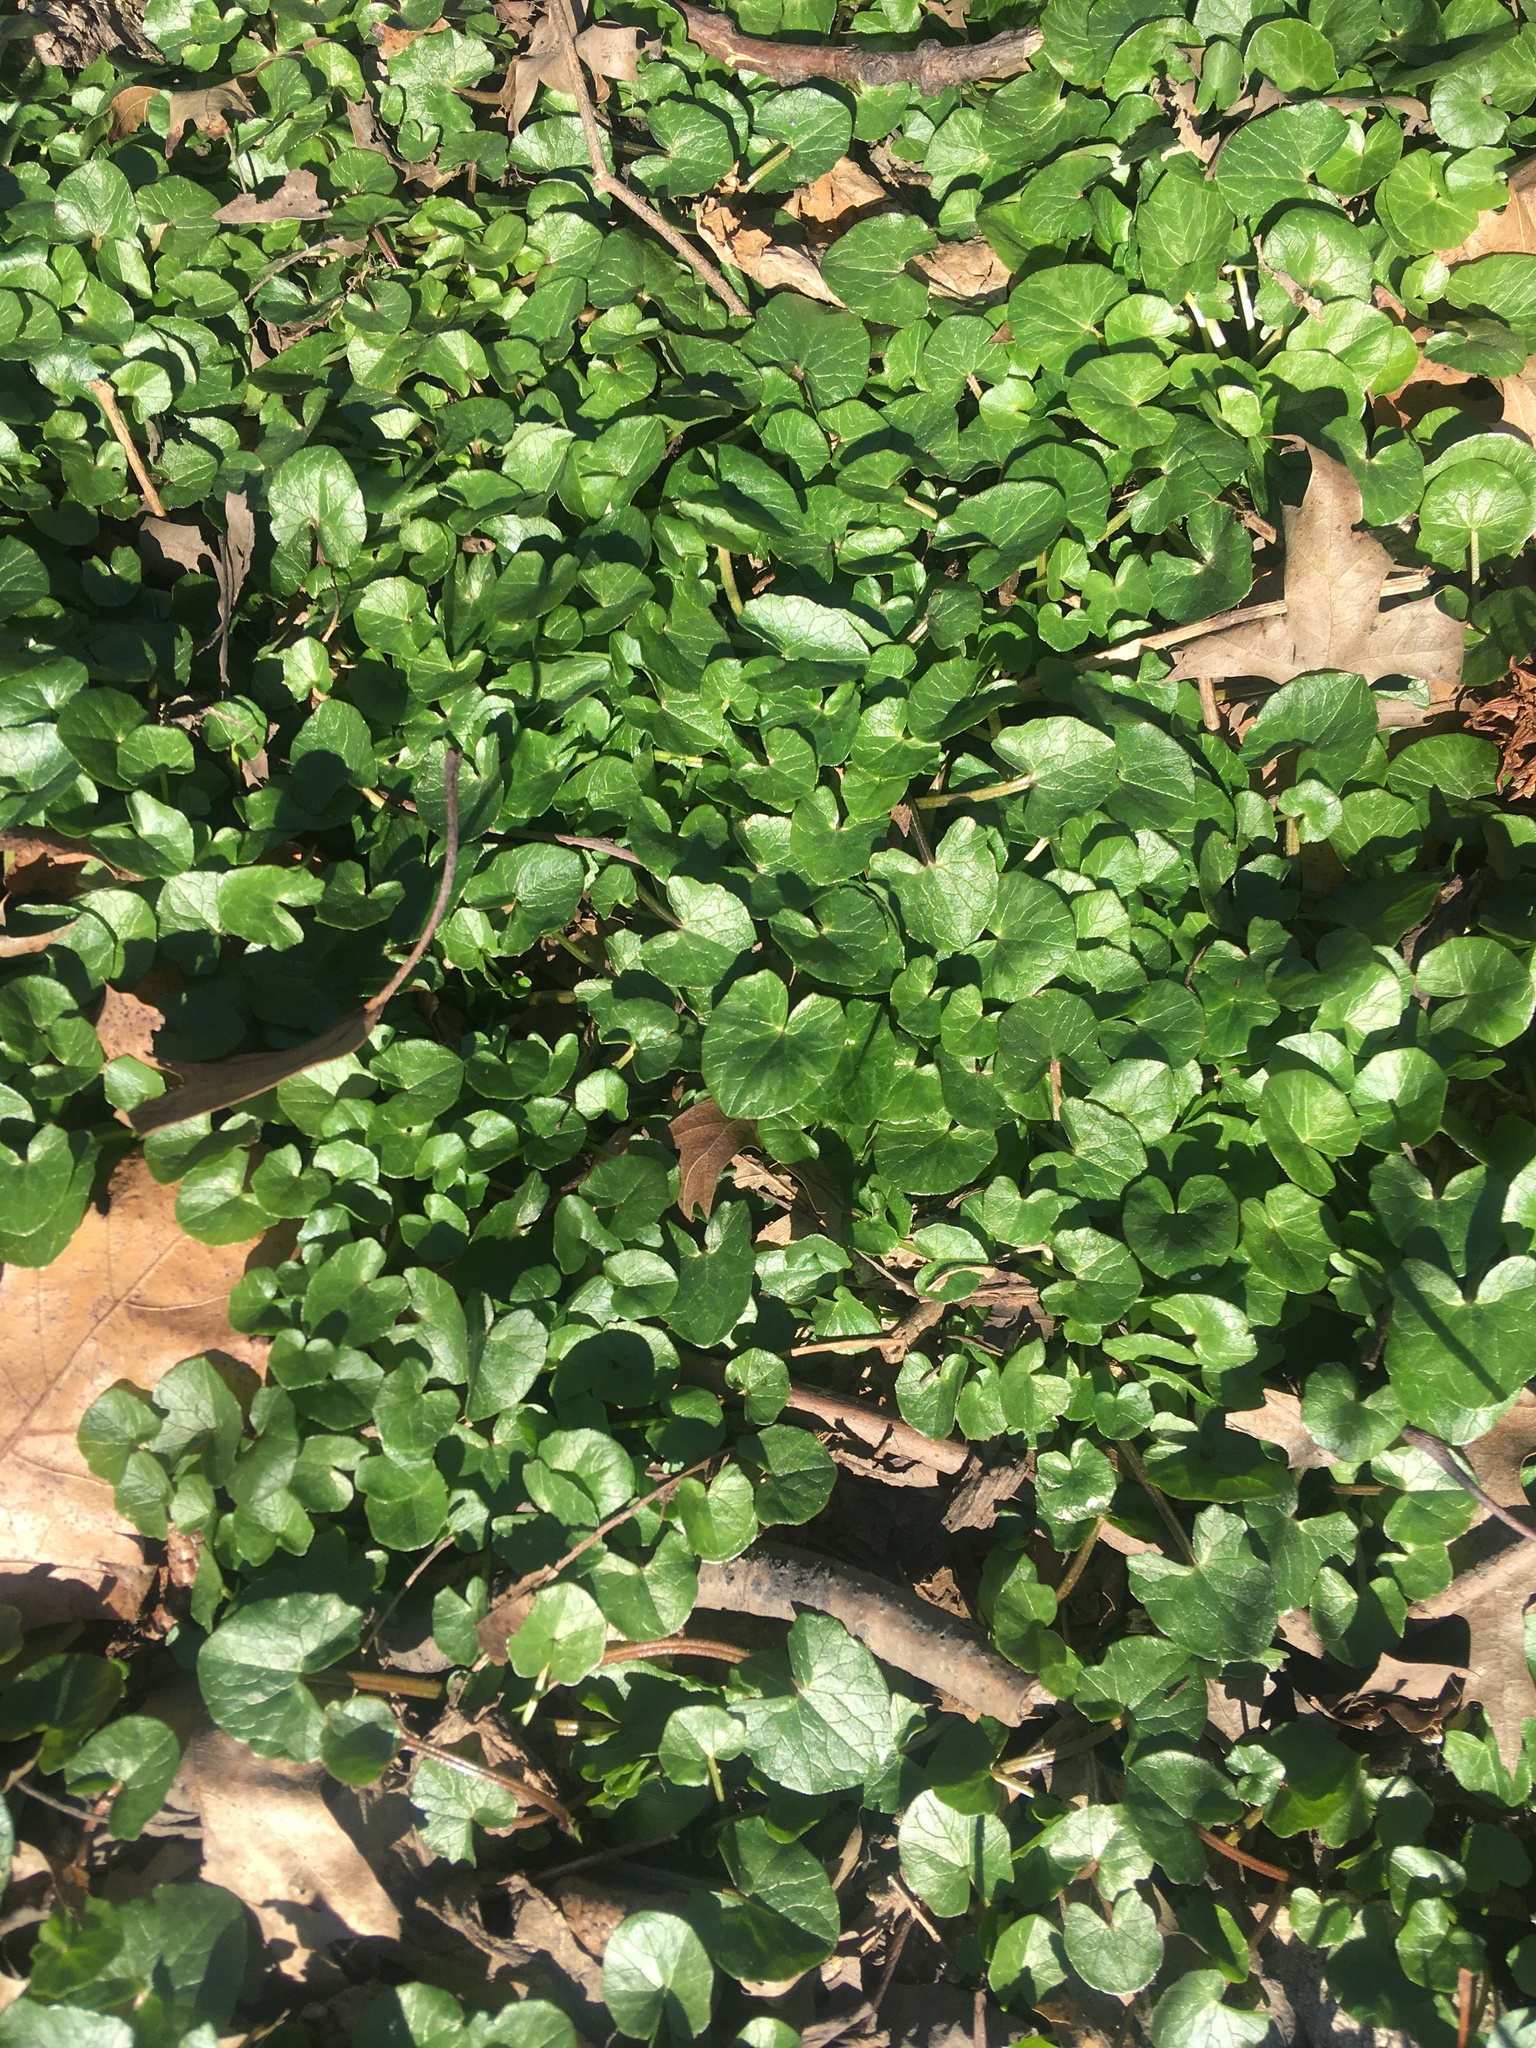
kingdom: Plantae
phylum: Tracheophyta
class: Magnoliopsida
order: Ranunculales
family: Ranunculaceae
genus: Ficaria
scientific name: Ficaria verna
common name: Lesser celandine
